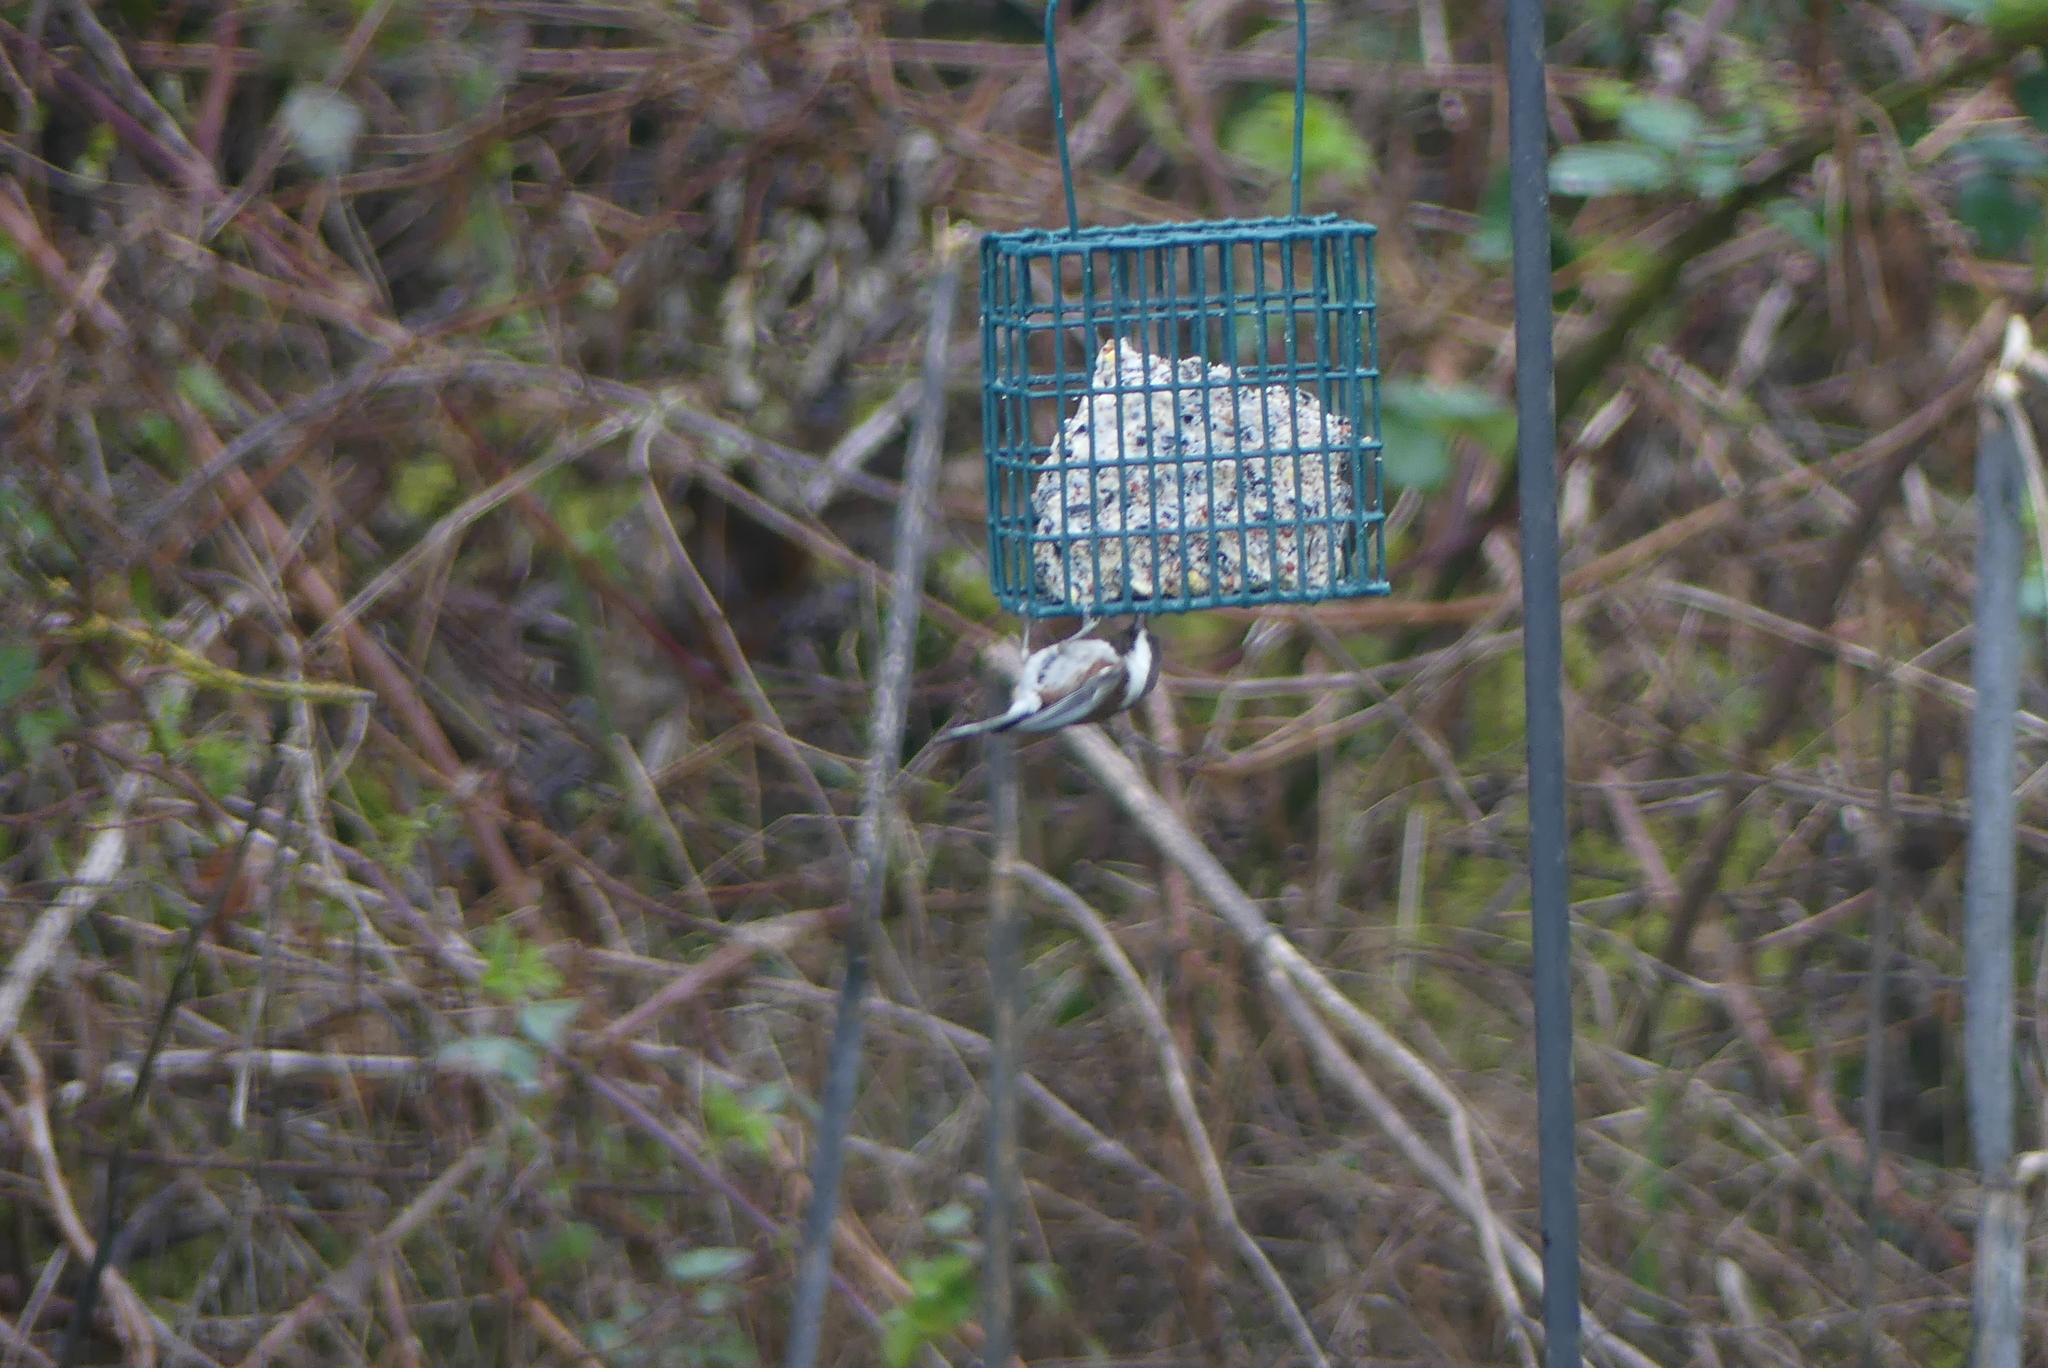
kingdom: Animalia
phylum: Chordata
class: Aves
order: Passeriformes
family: Paridae
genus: Poecile
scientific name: Poecile rufescens
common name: Chestnut-backed chickadee
